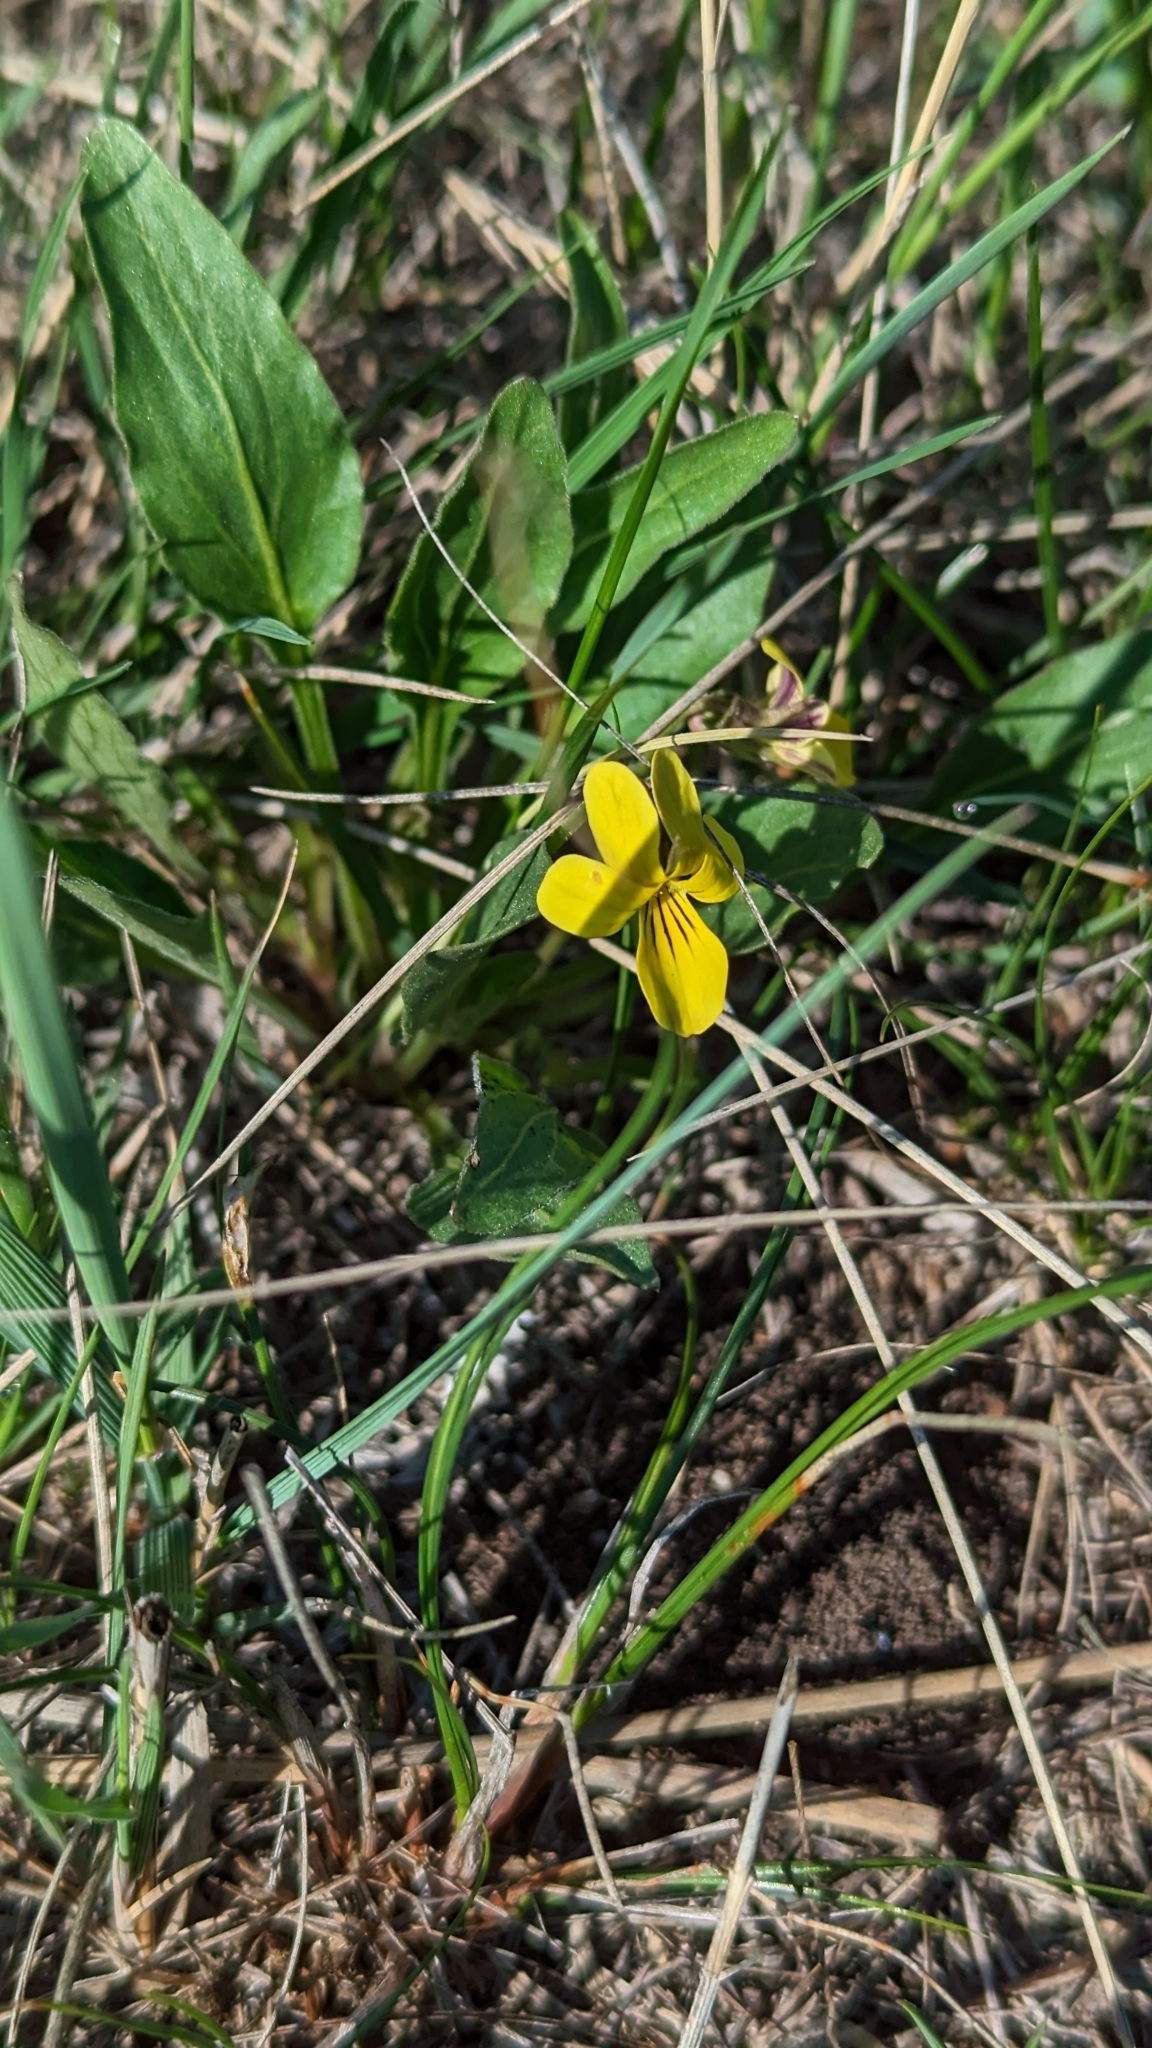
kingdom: Plantae
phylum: Tracheophyta
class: Magnoliopsida
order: Malpighiales
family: Violaceae
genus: Viola
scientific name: Viola nuttallii
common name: Yellow prairie violet
